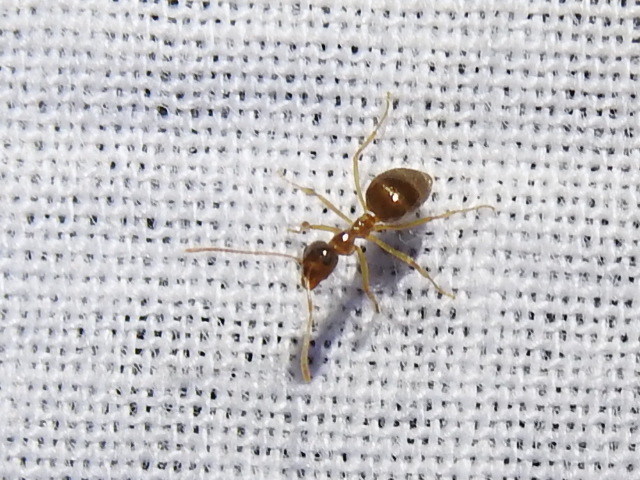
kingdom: Animalia
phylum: Arthropoda
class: Insecta
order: Hymenoptera
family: Formicidae
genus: Prenolepis
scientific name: Prenolepis imparis
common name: Small honey ant
